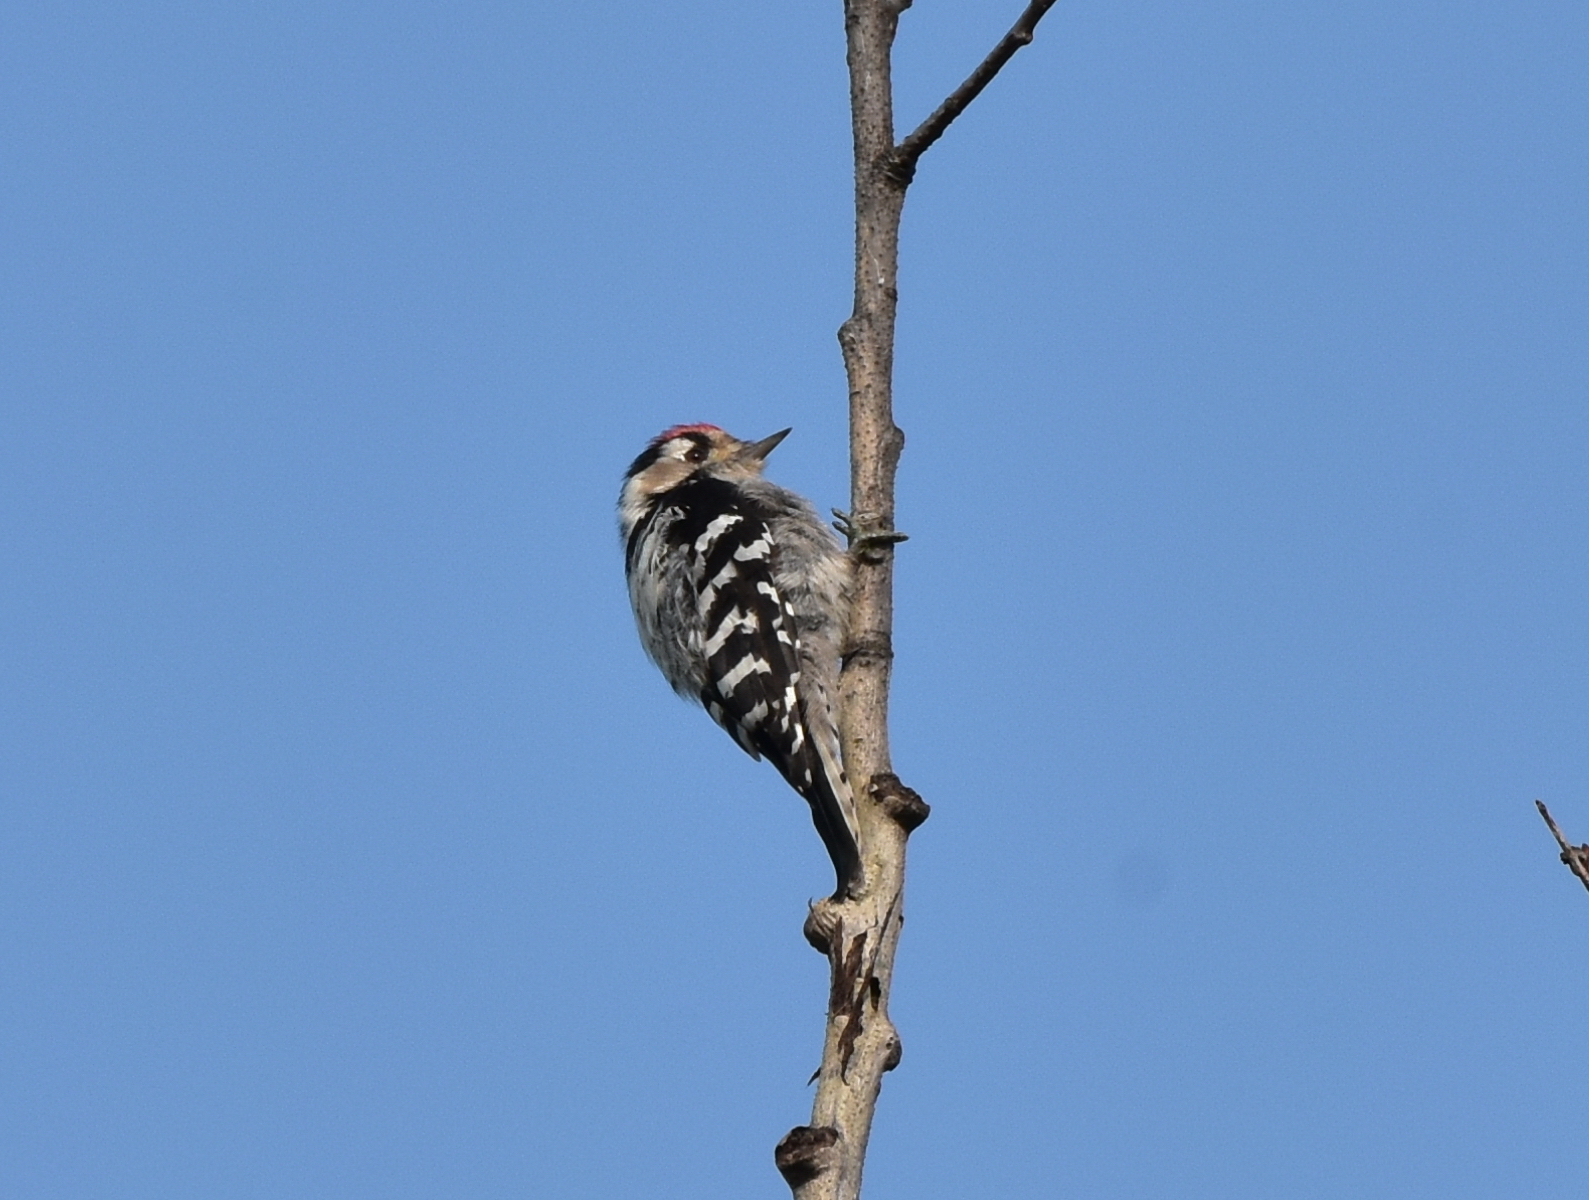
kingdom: Animalia
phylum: Chordata
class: Aves
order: Piciformes
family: Picidae
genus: Dryobates
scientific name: Dryobates minor
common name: Lesser spotted woodpecker
